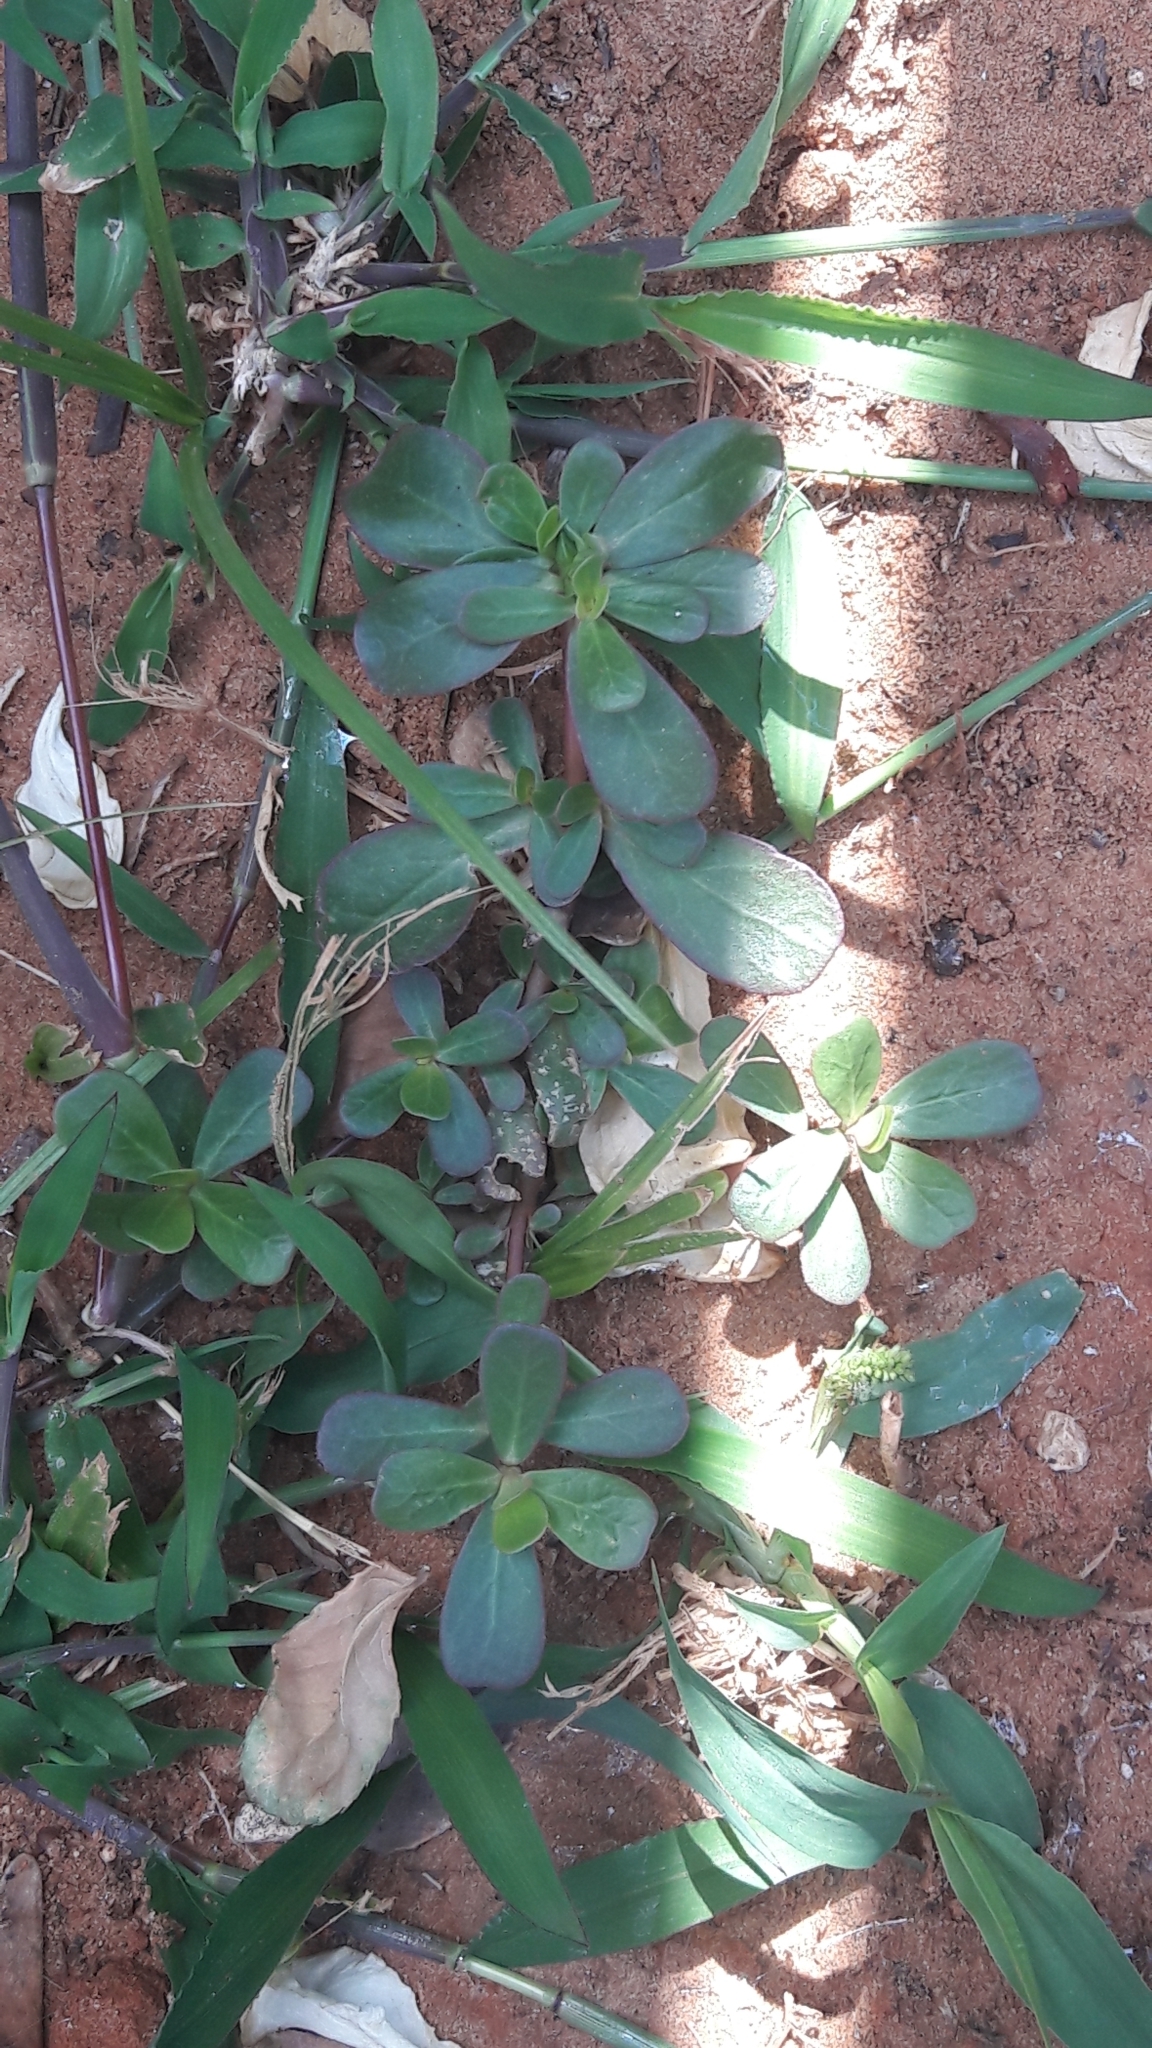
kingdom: Plantae
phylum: Tracheophyta
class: Magnoliopsida
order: Caryophyllales
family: Portulacaceae
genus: Portulaca
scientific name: Portulaca oleracea
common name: Common purslane
